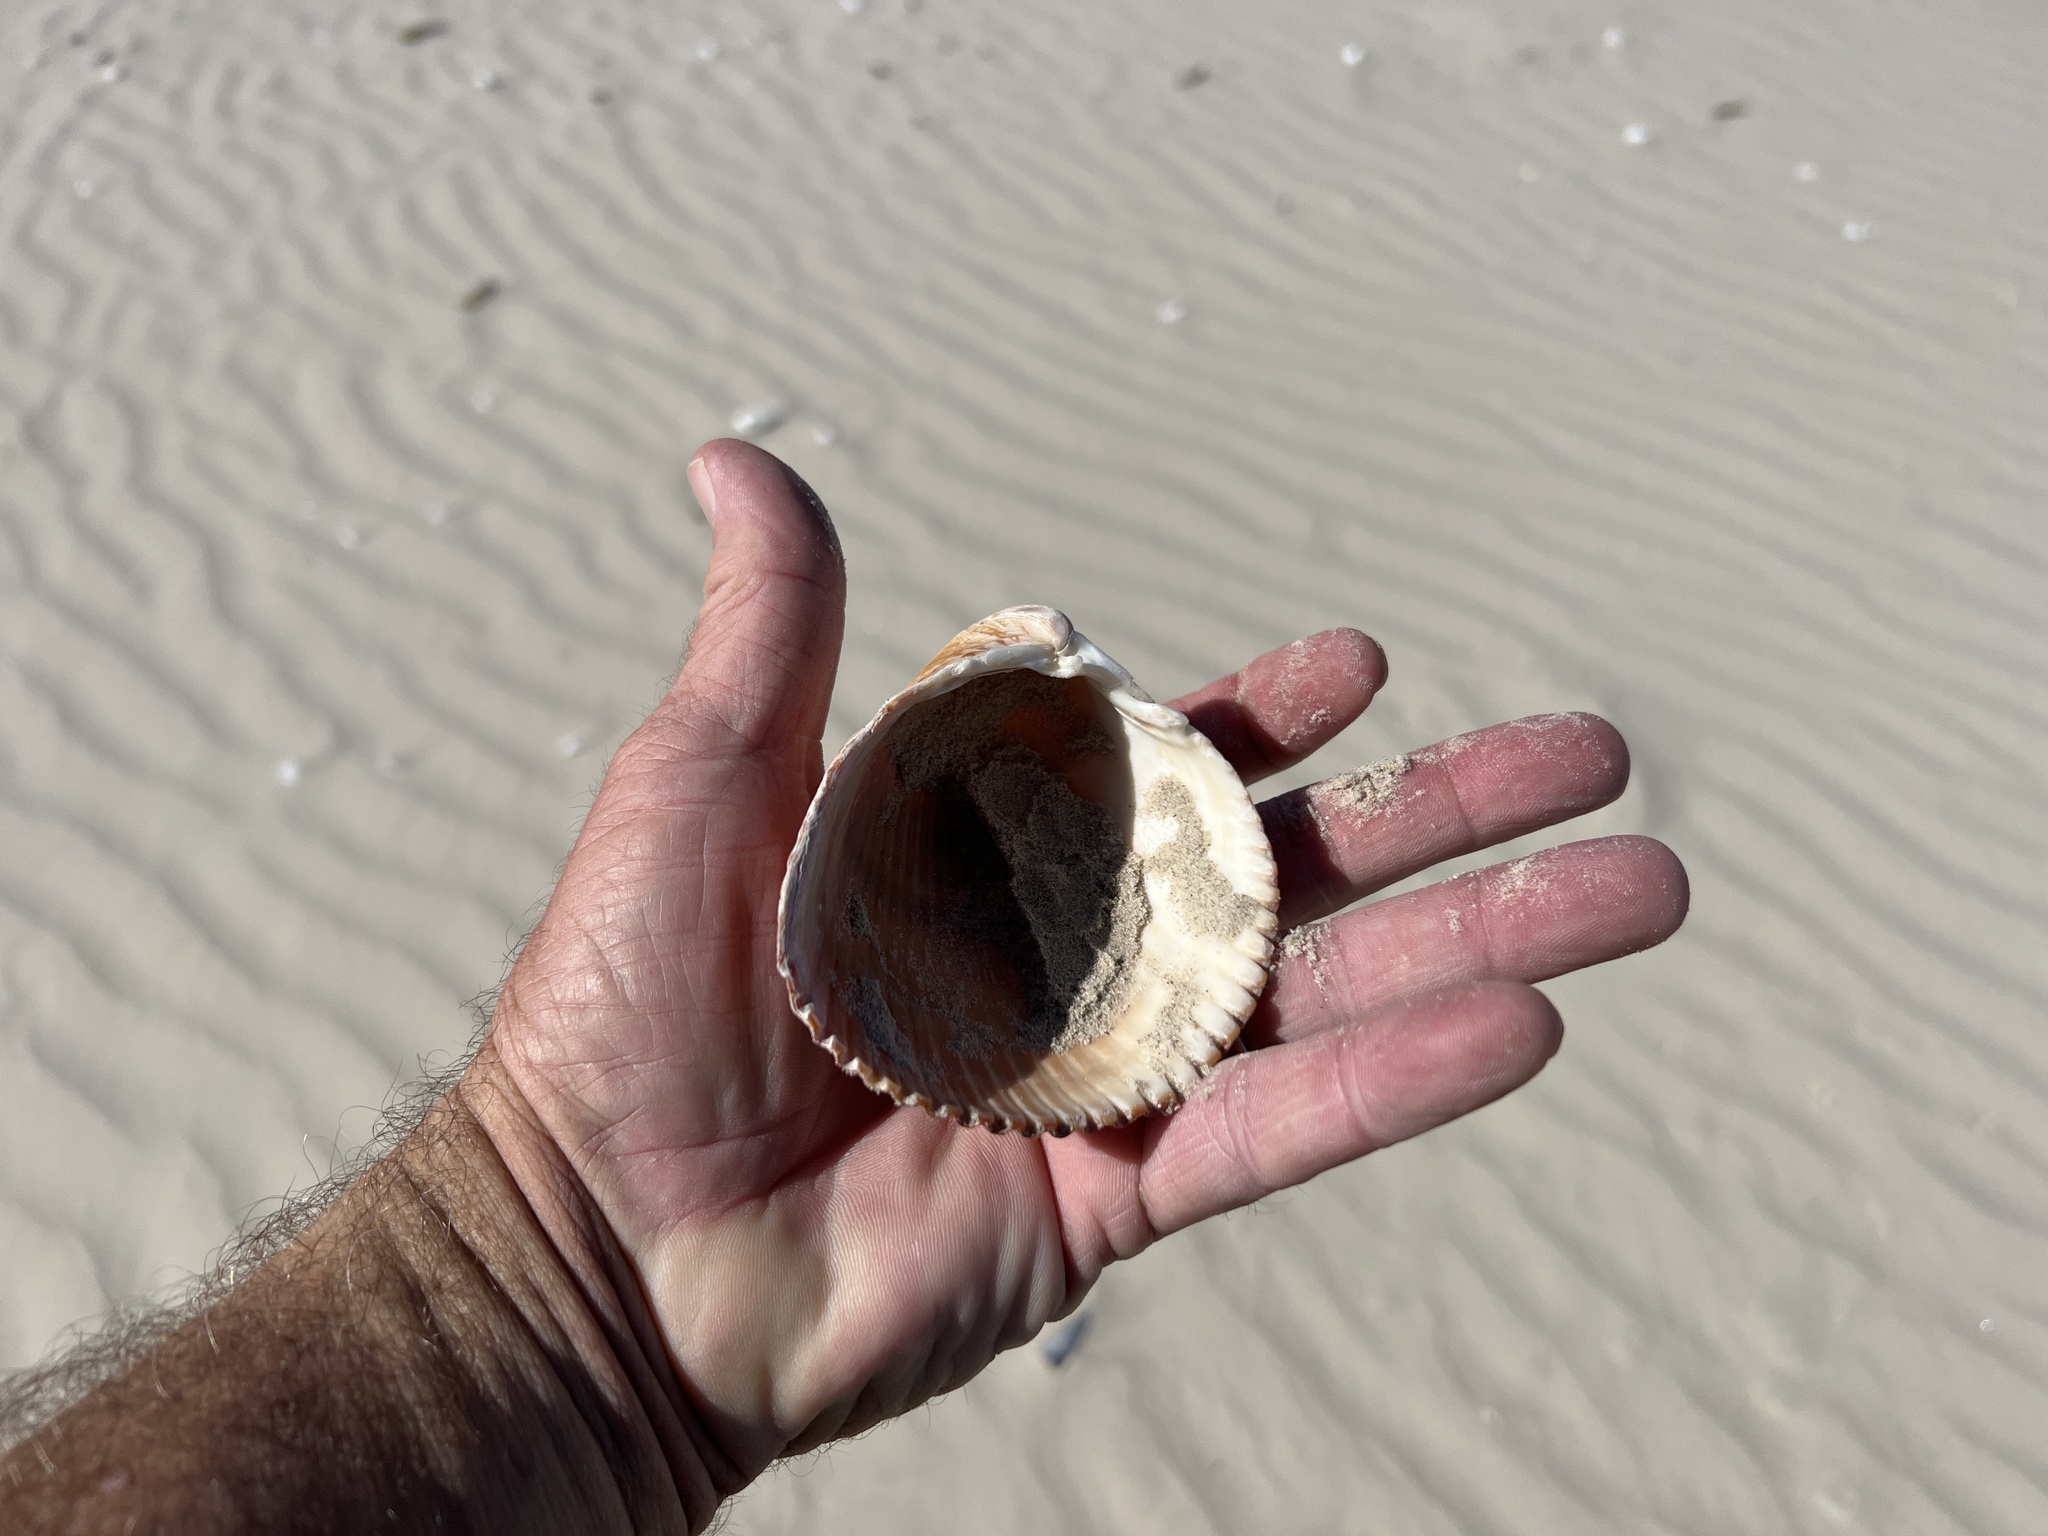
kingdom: Animalia
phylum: Mollusca
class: Bivalvia
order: Cardiida
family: Cardiidae
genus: Dinocardium
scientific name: Dinocardium robustum
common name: Atlantic giant cockle
